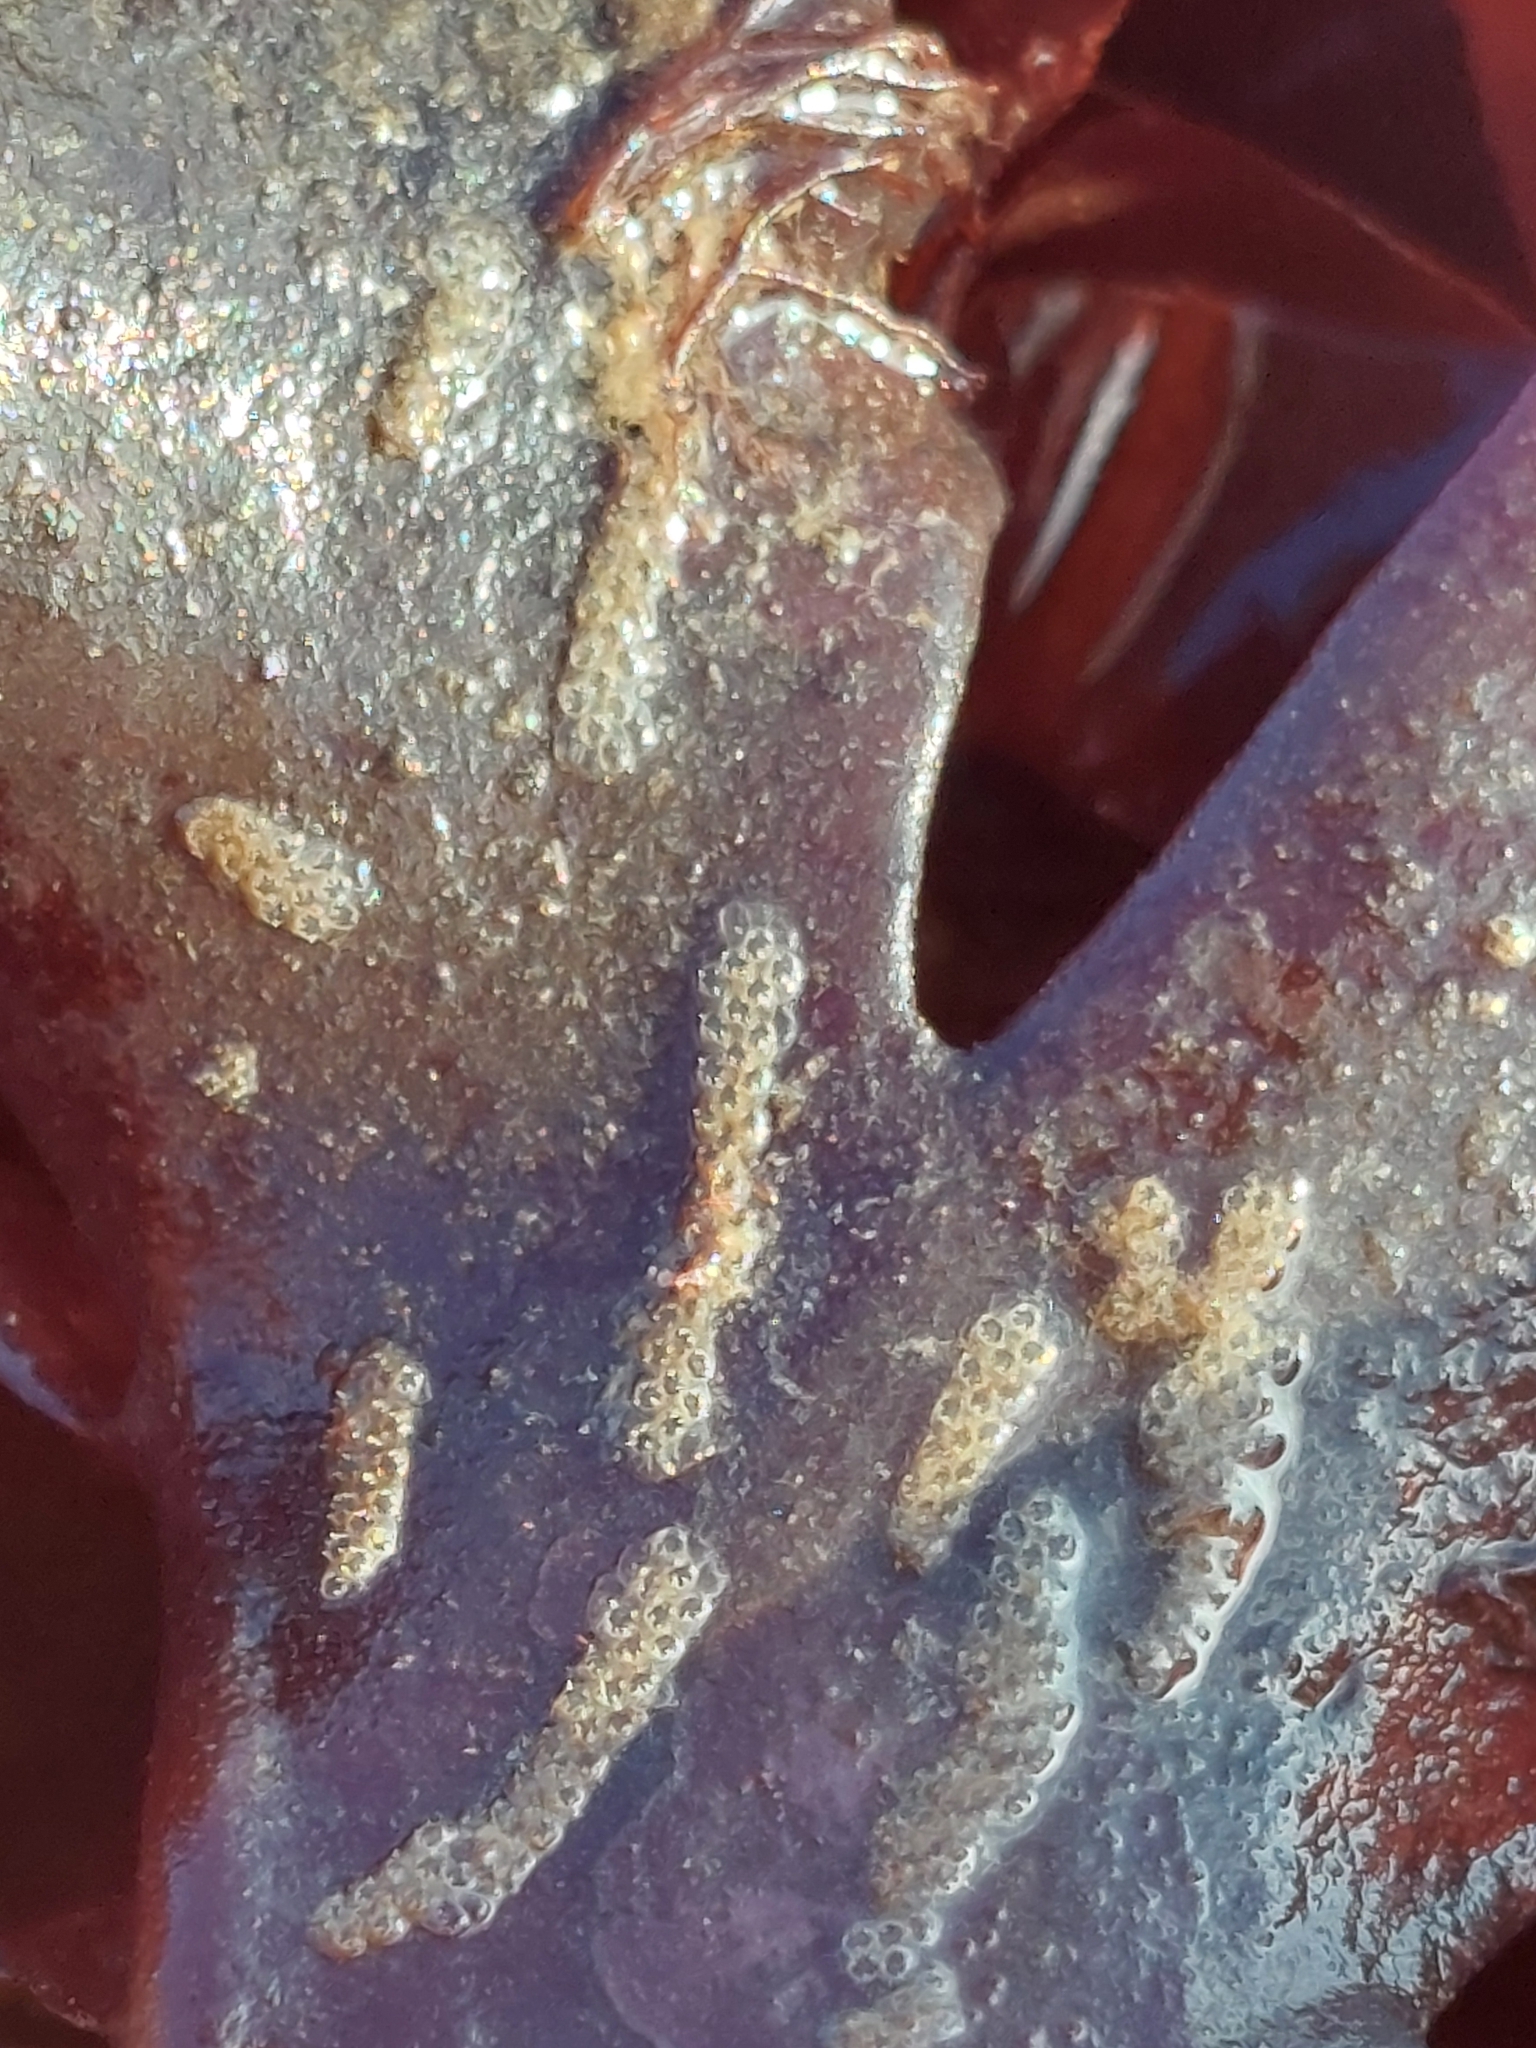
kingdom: Animalia
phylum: Bryozoa
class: Gymnolaemata
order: Cheilostomatida
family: Electridae
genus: Electra
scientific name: Electra pilosa
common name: Hairy sea-mat
